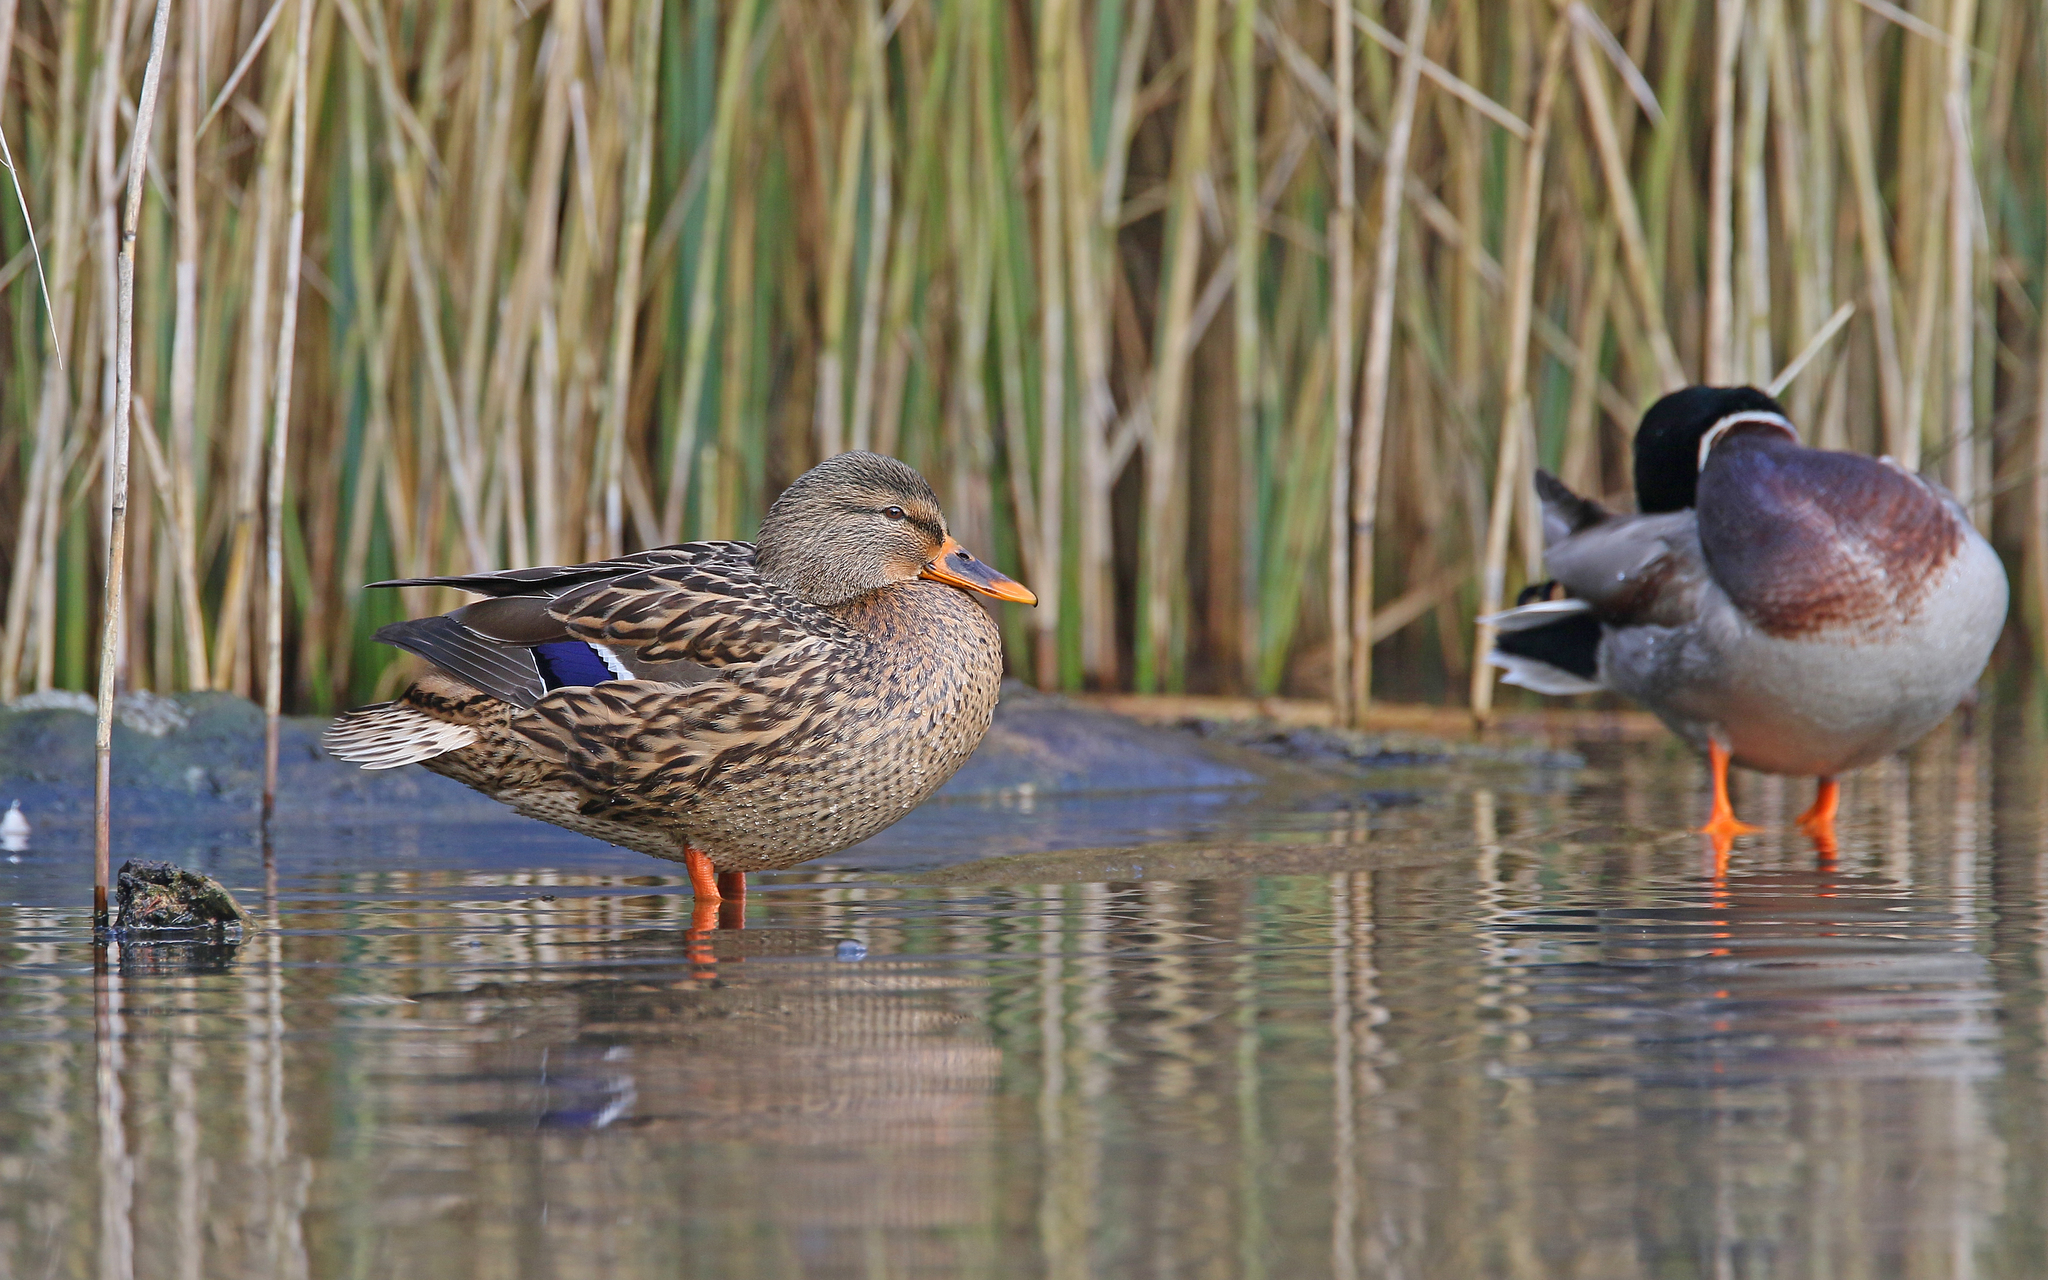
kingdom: Animalia
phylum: Chordata
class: Aves
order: Anseriformes
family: Anatidae
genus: Anas
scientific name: Anas platyrhynchos
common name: Mallard
